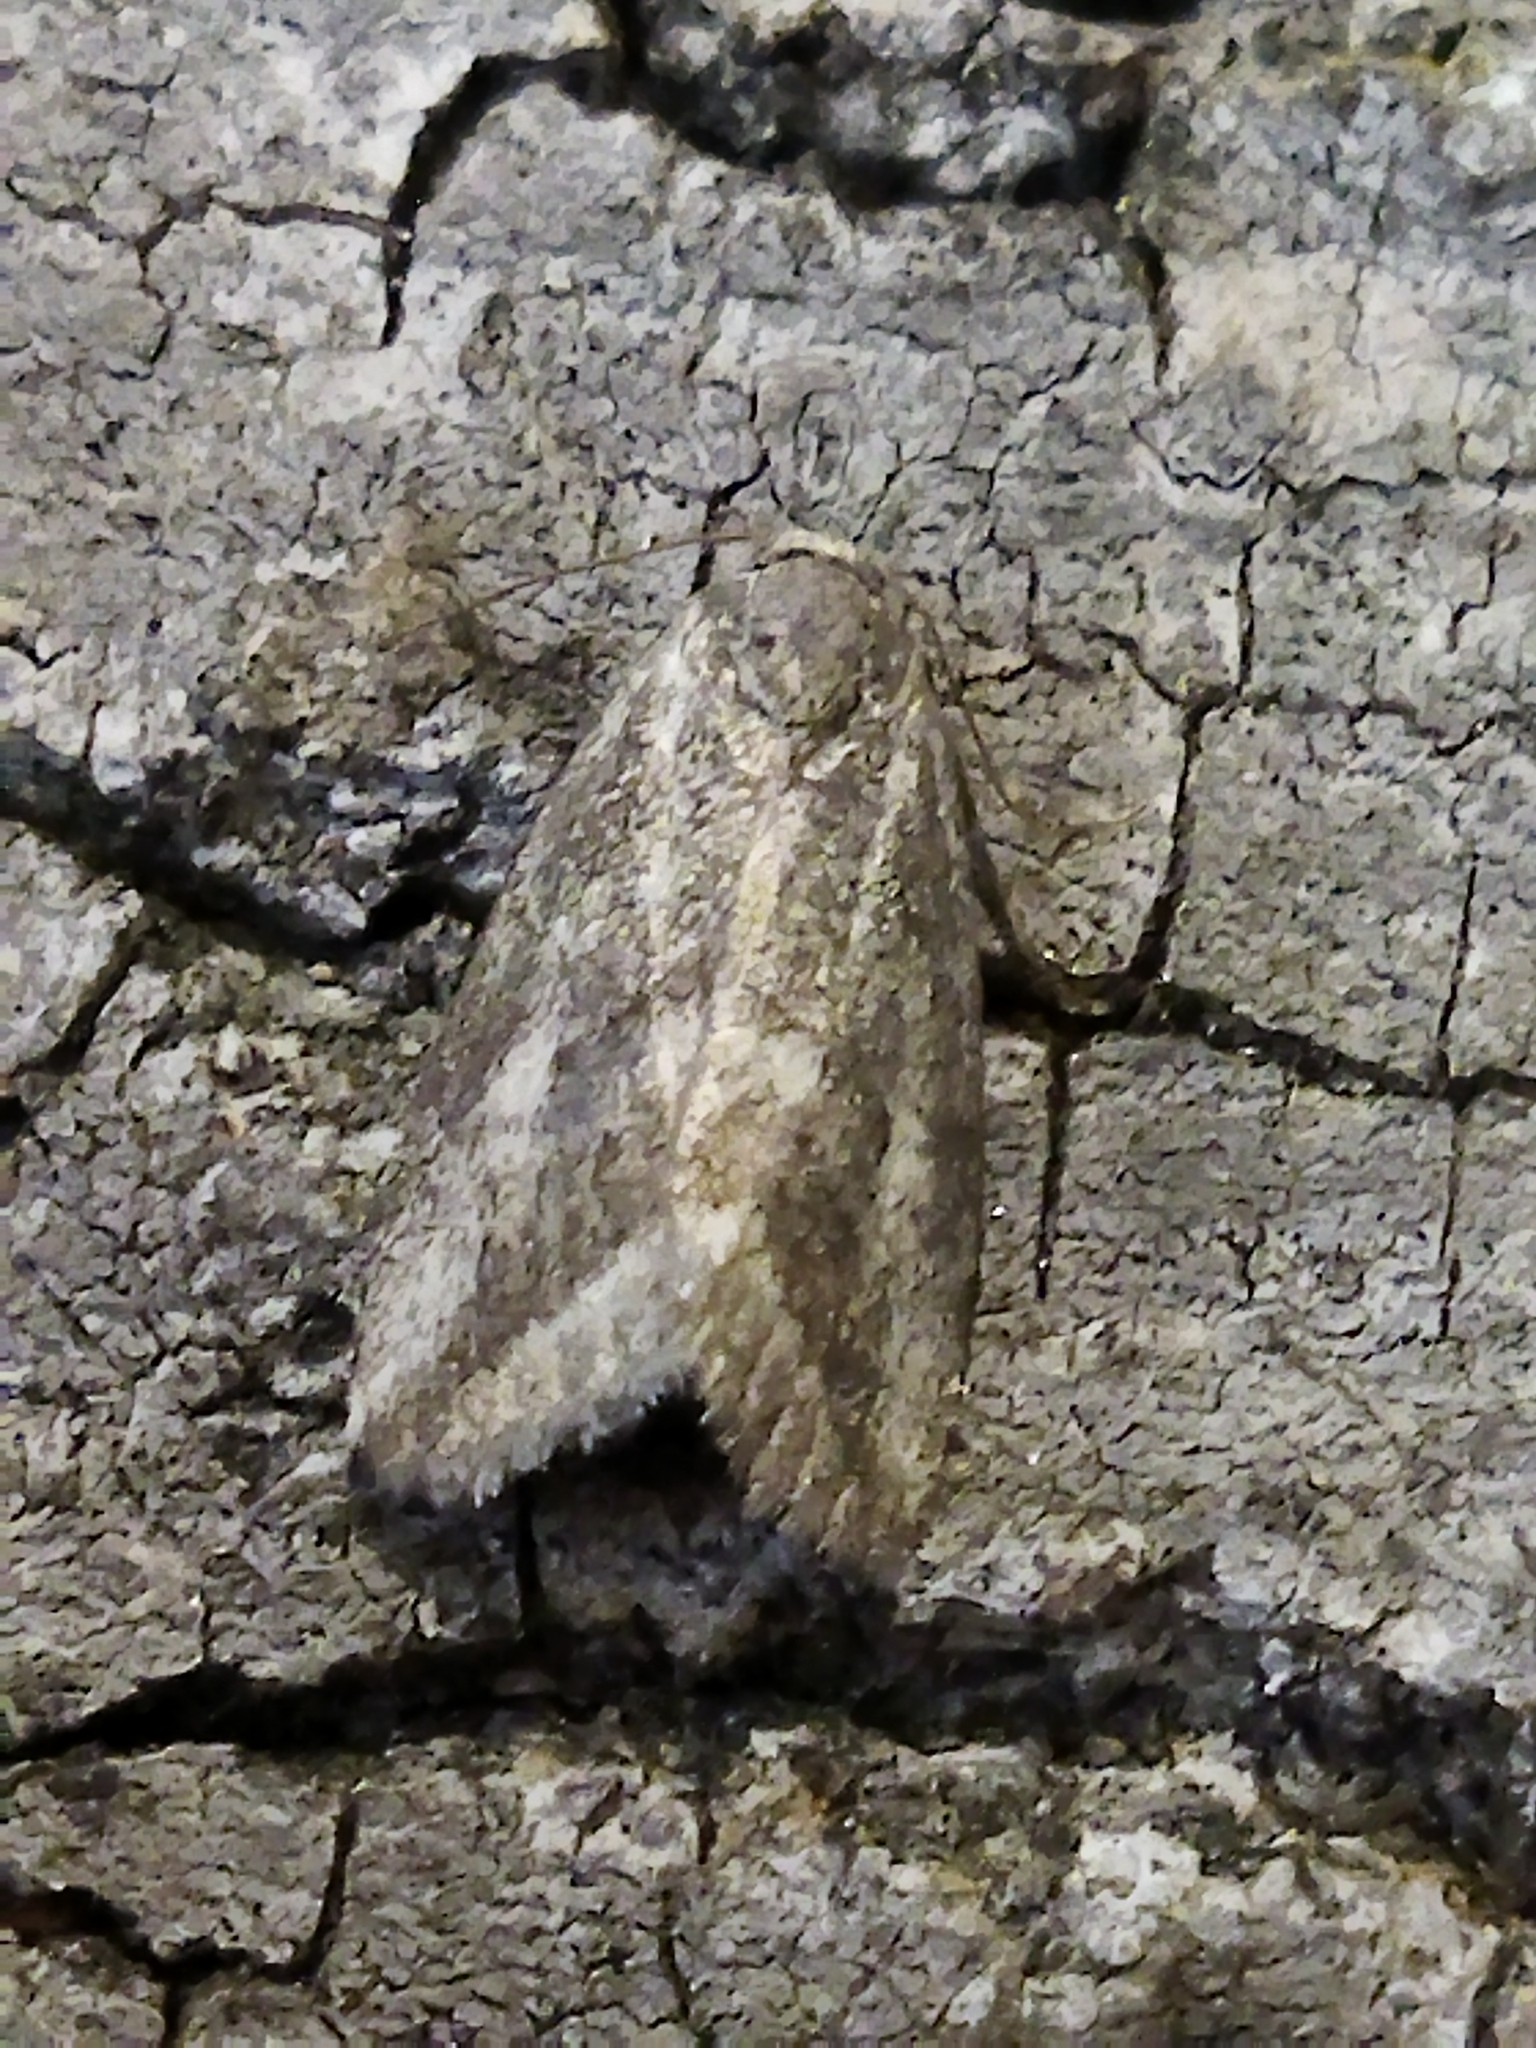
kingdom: Animalia
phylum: Arthropoda
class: Insecta
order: Lepidoptera
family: Noctuidae
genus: Phyllophila
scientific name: Phyllophila obliterata
